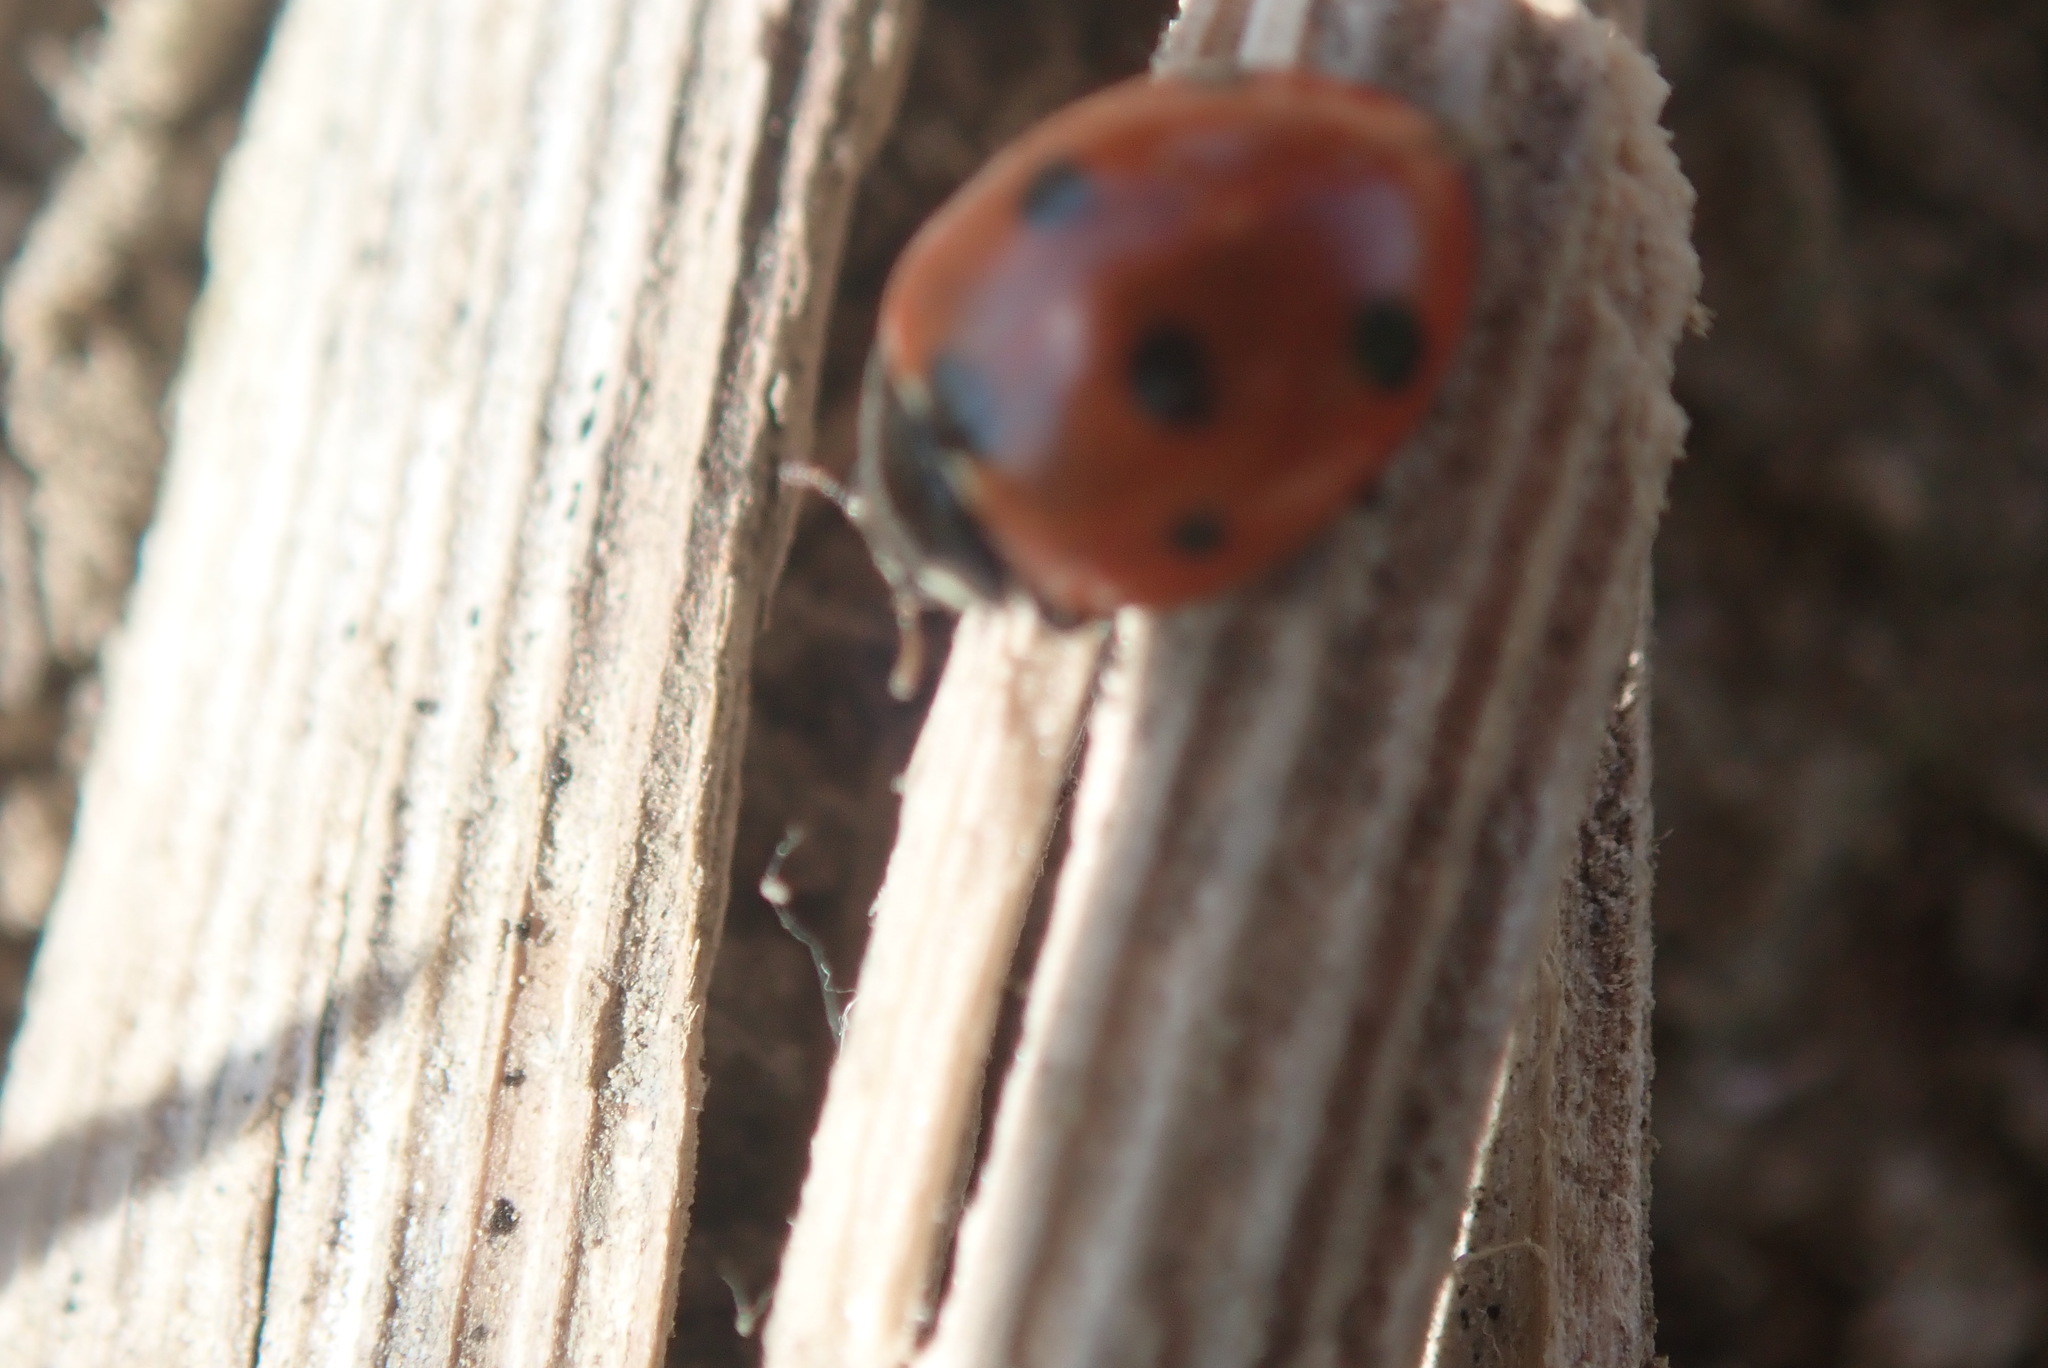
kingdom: Animalia
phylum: Arthropoda
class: Insecta
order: Coleoptera
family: Coccinellidae
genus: Coccinella
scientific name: Coccinella septempunctata
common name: Sevenspotted lady beetle
